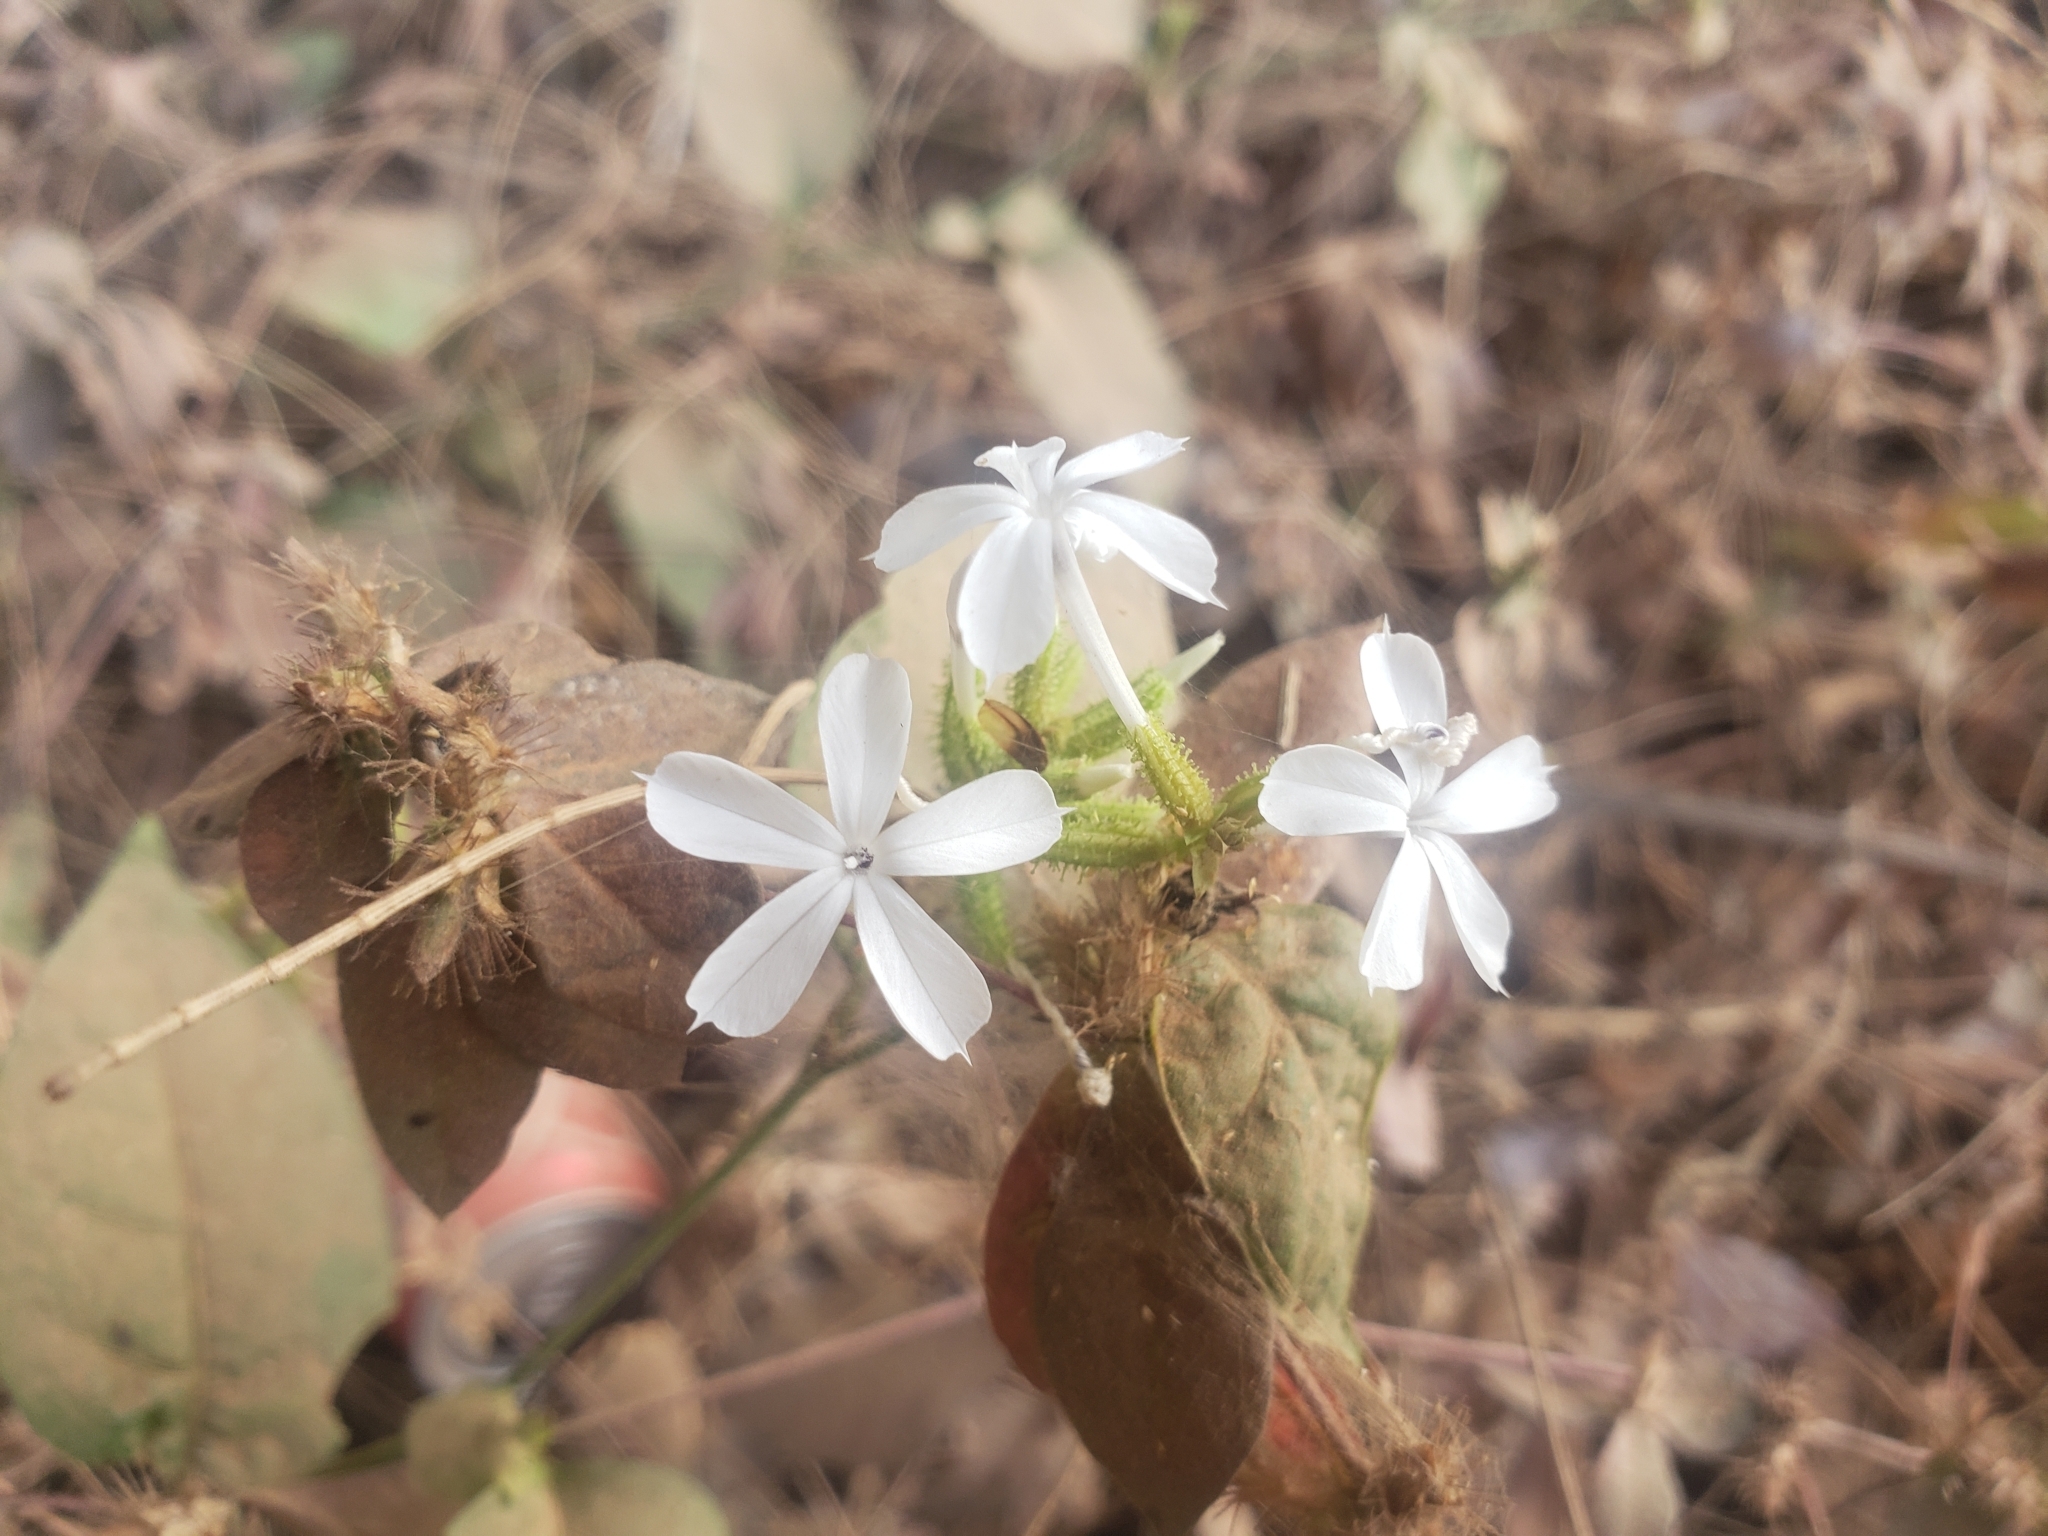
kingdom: Plantae
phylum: Tracheophyta
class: Magnoliopsida
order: Caryophyllales
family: Plumbaginaceae
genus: Plumbago
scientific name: Plumbago zeylanica
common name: Doctorbush
